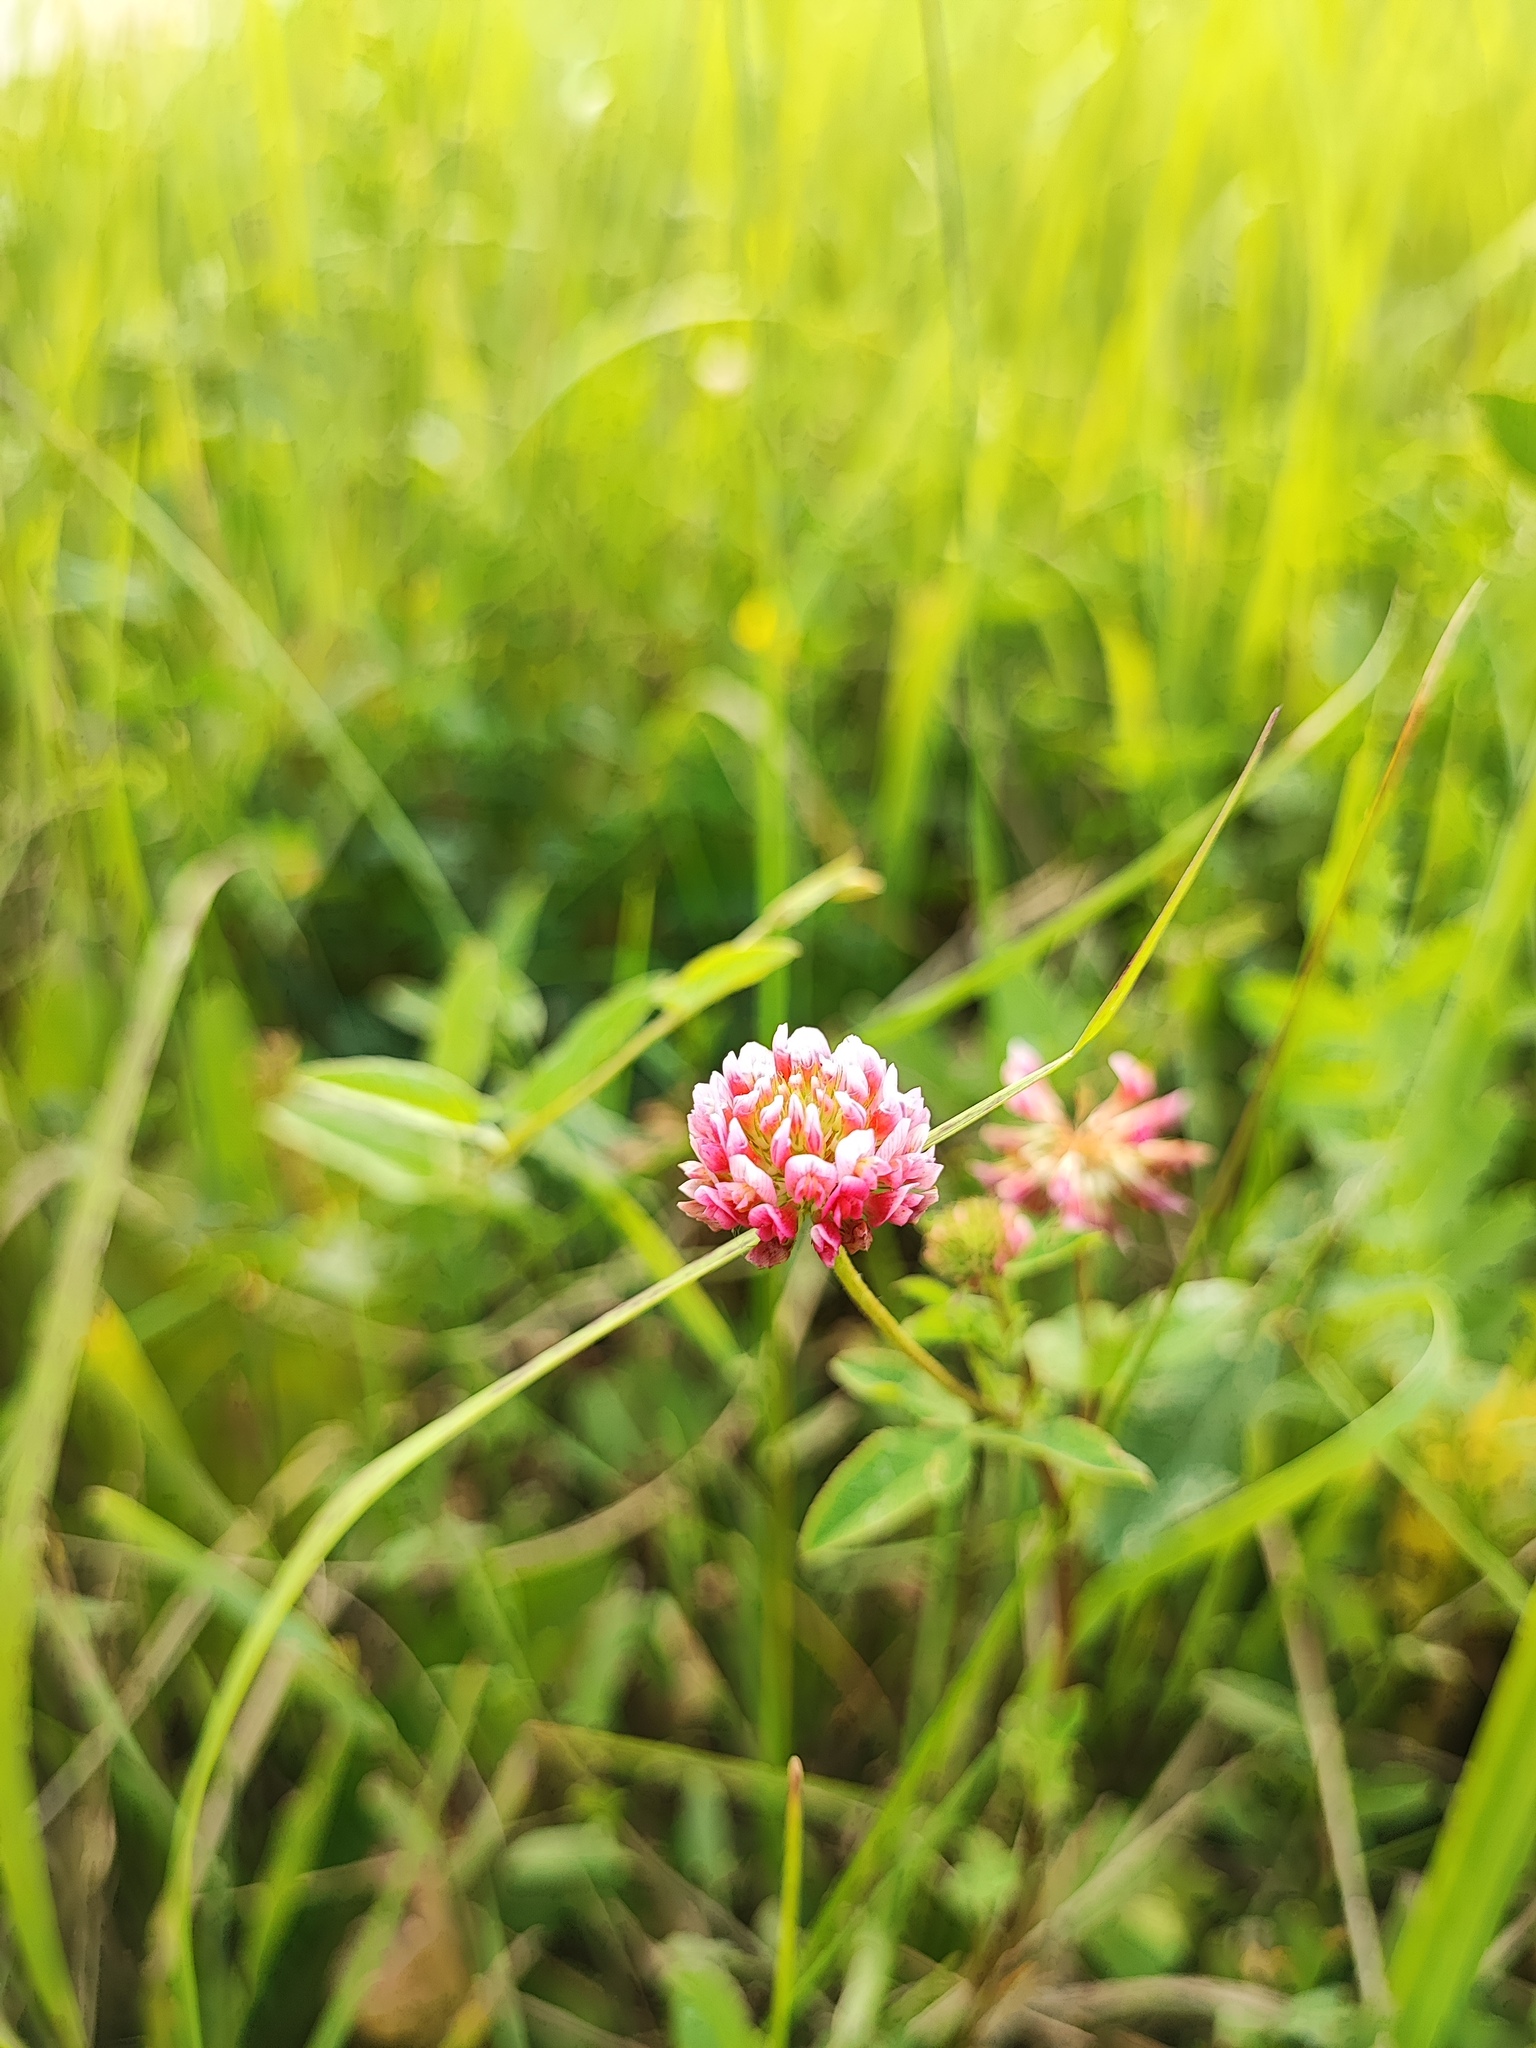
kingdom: Plantae
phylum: Tracheophyta
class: Magnoliopsida
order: Fabales
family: Fabaceae
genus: Trifolium
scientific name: Trifolium hybridum
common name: Alsike clover
